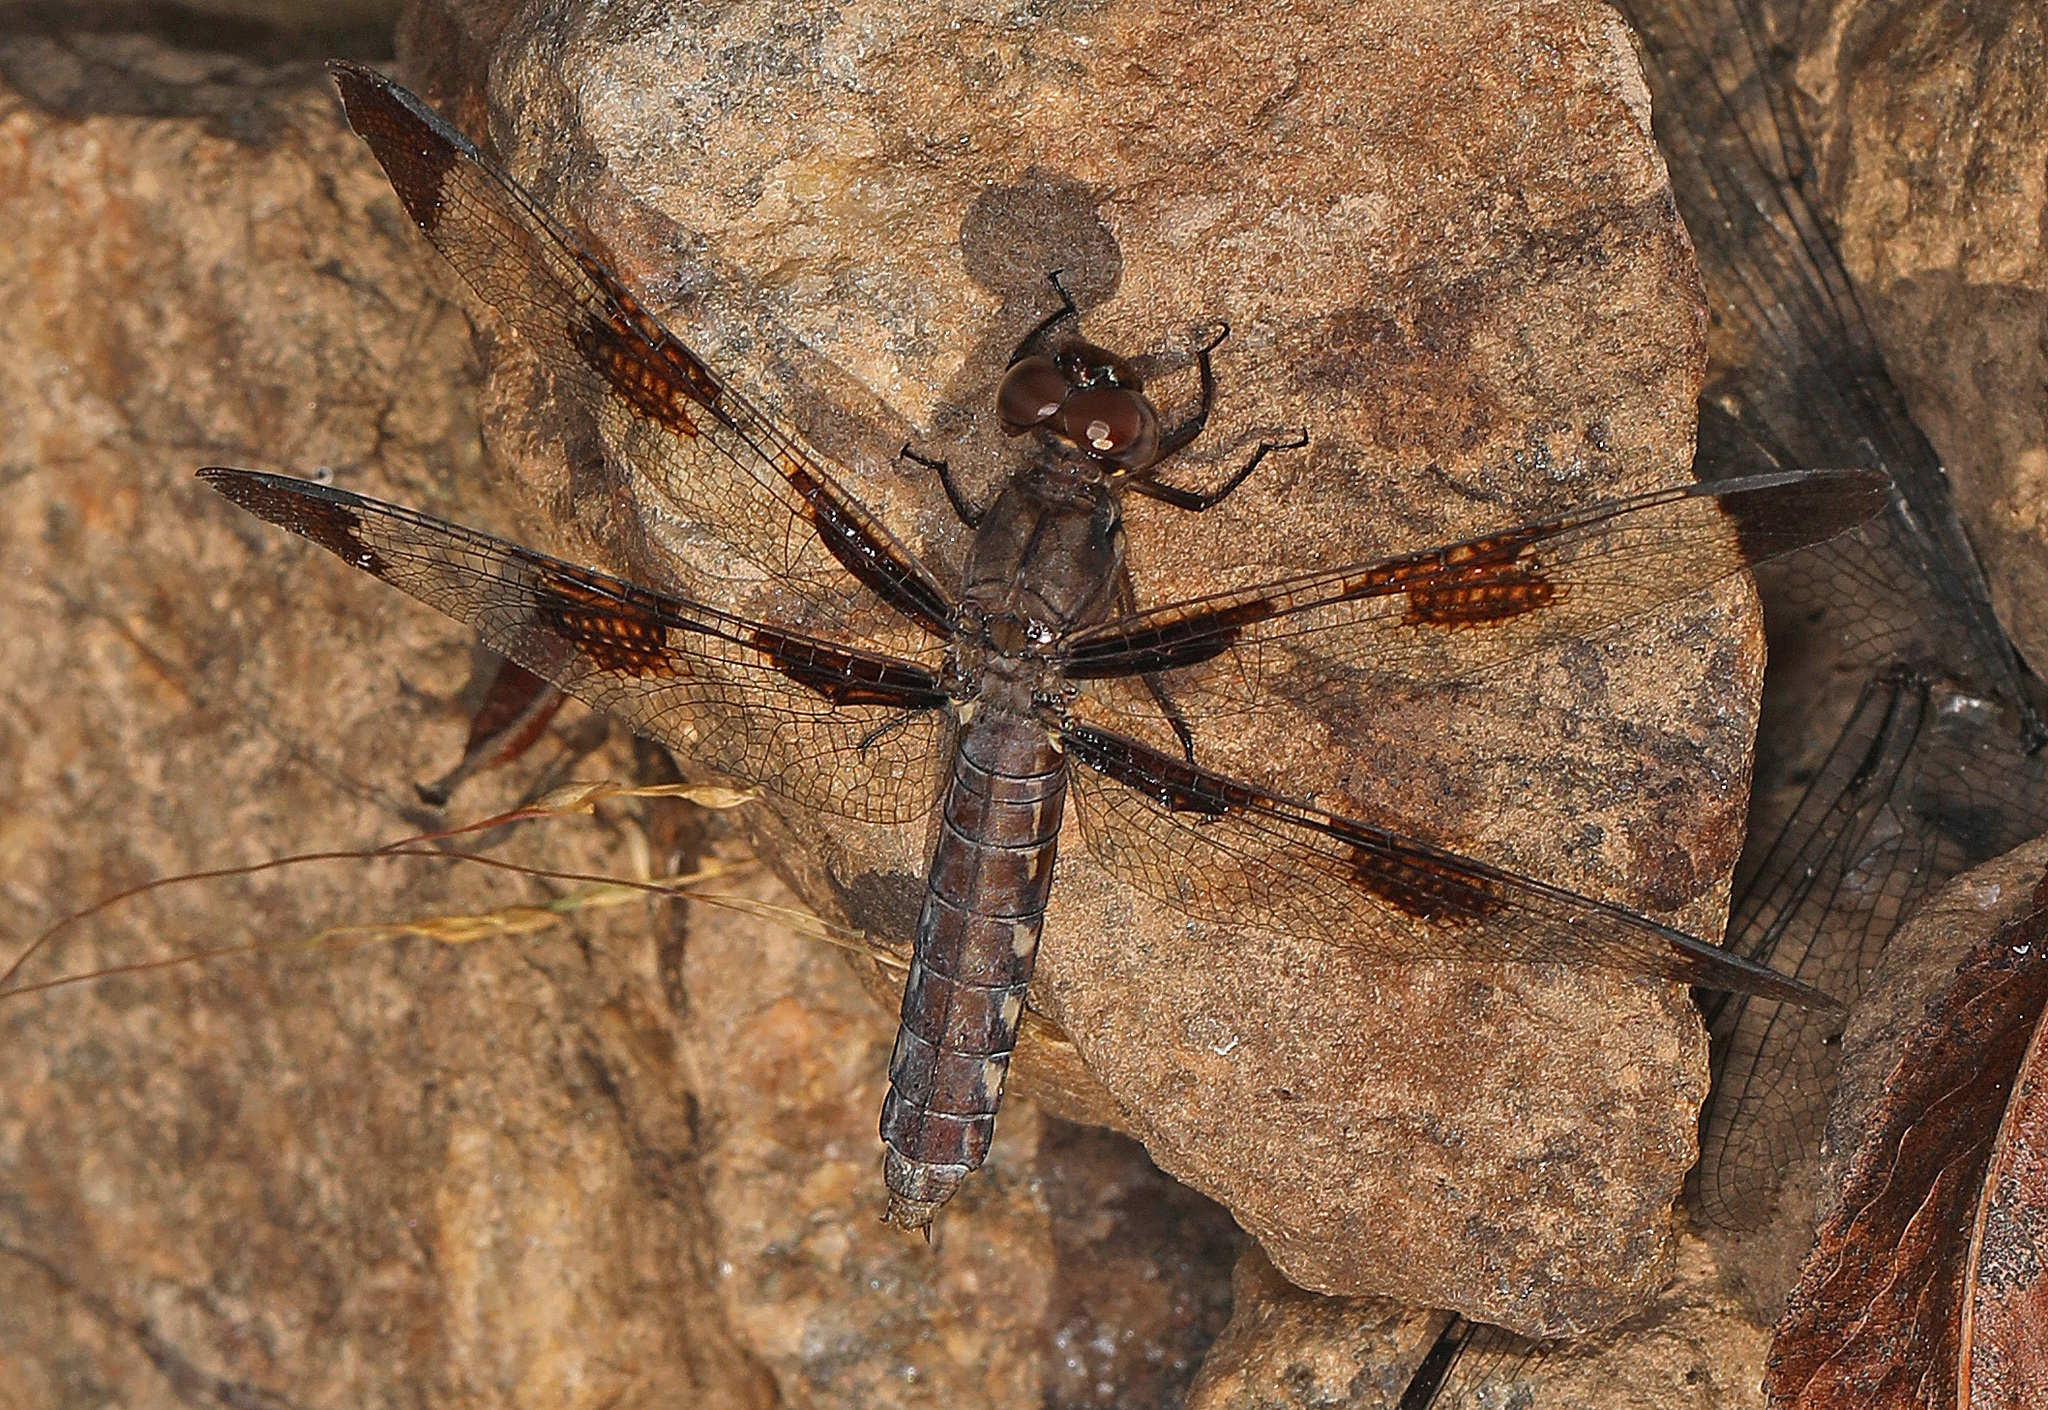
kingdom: Animalia
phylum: Arthropoda
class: Insecta
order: Odonata
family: Libellulidae
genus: Plathemis
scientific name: Plathemis lydia
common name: Common whitetail
